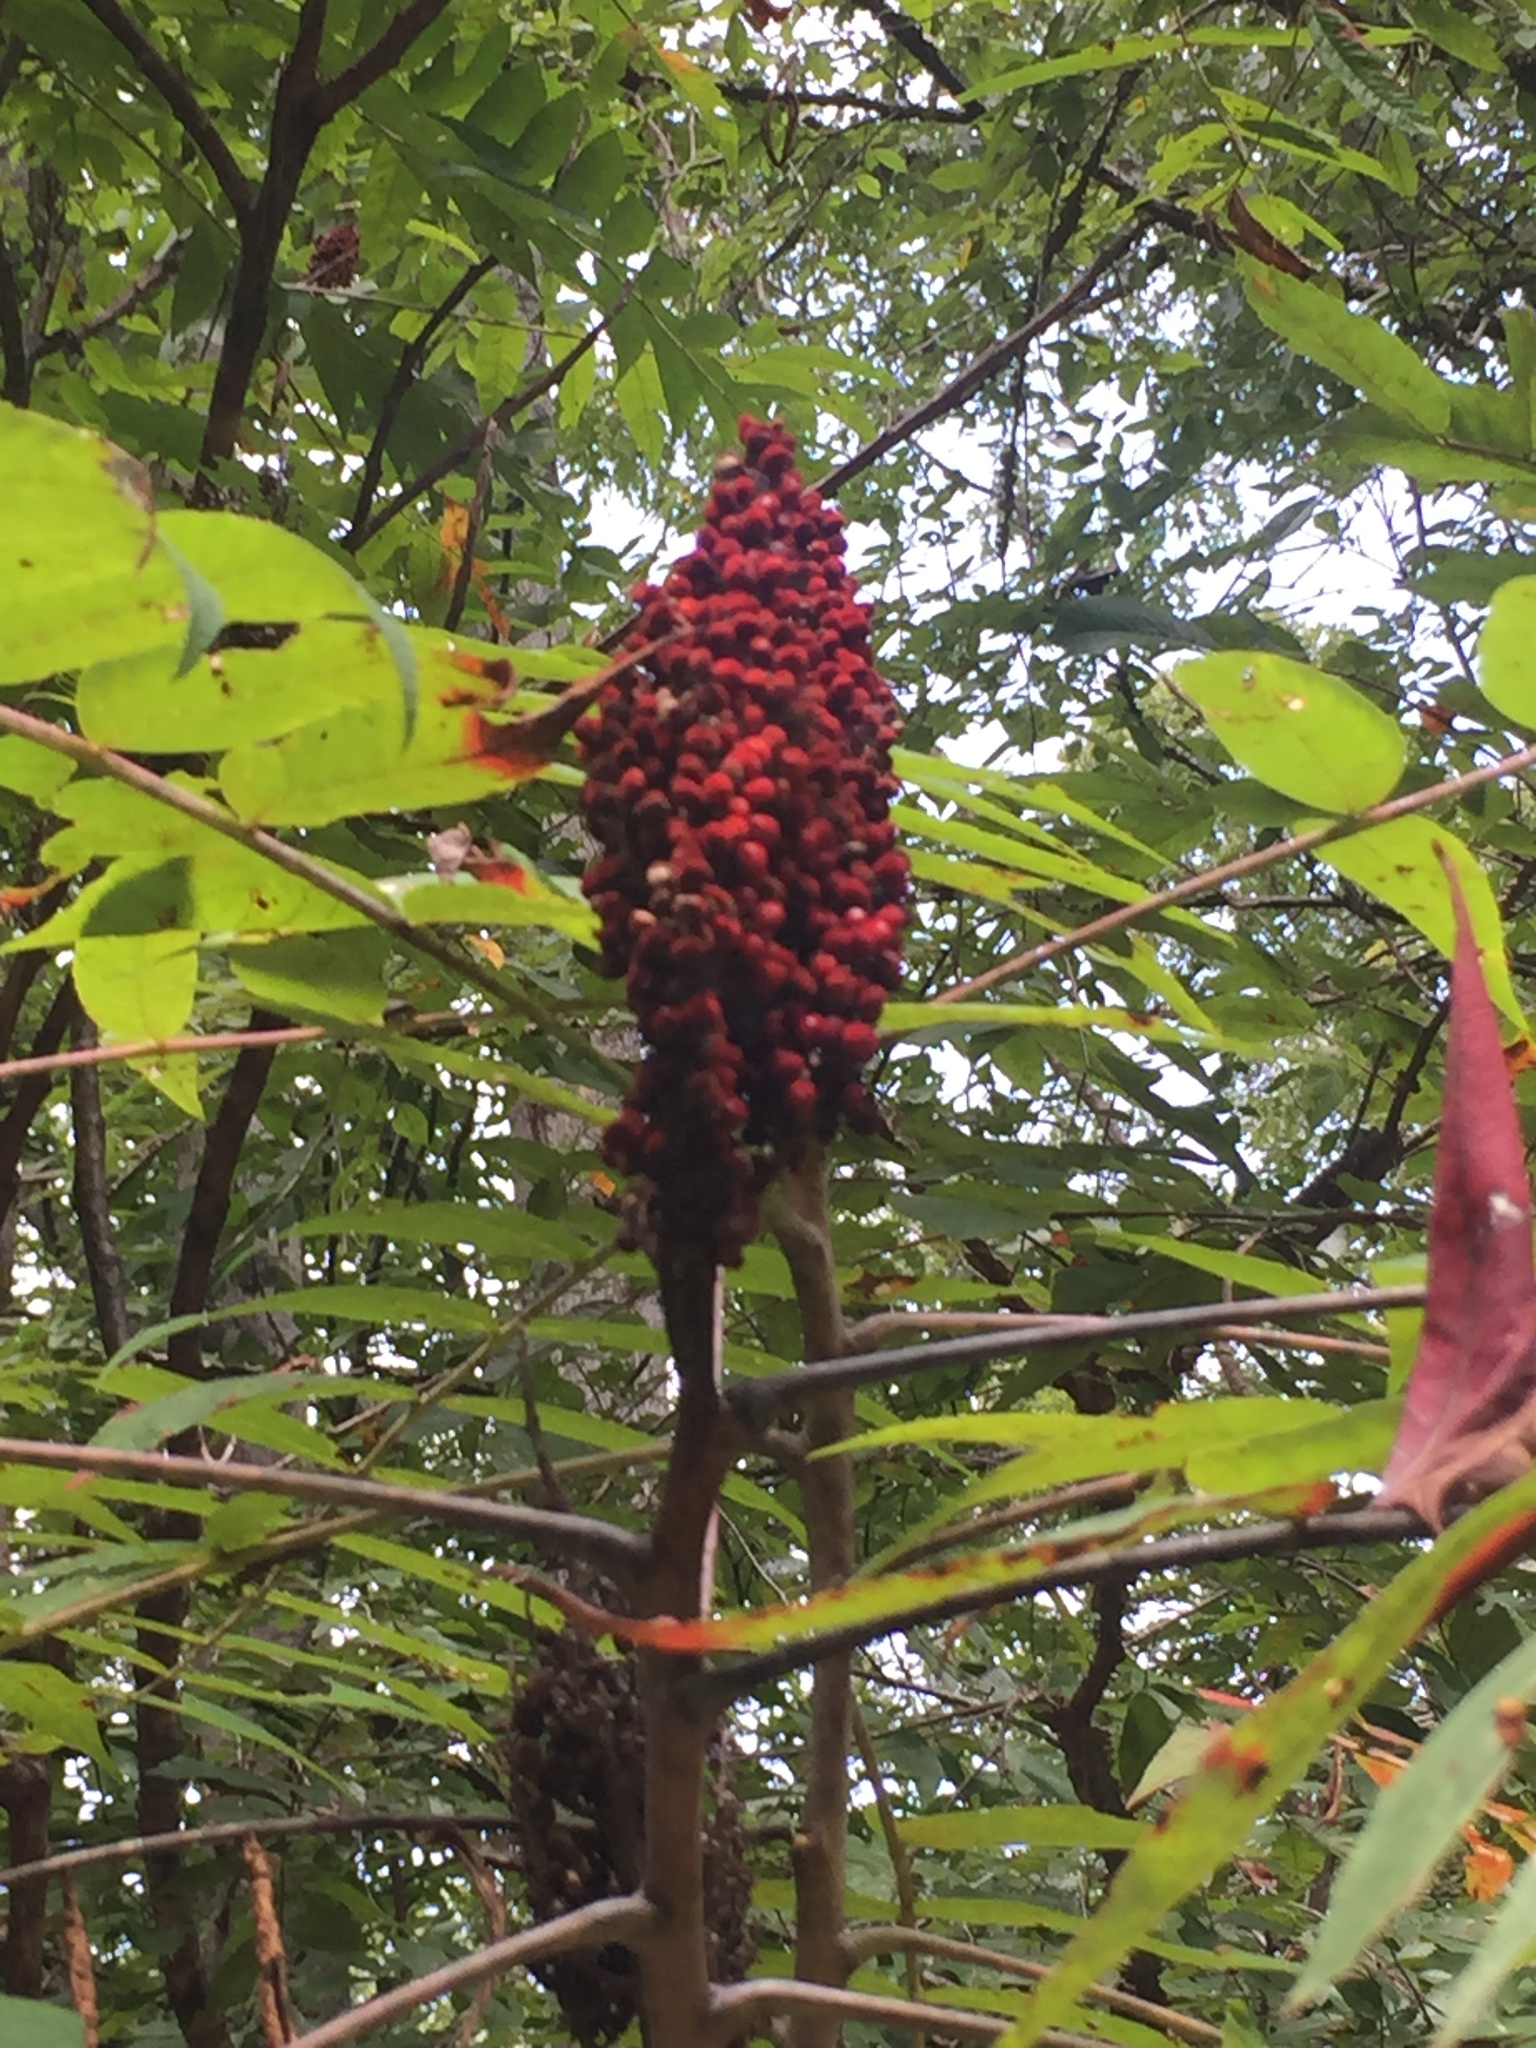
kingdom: Plantae
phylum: Tracheophyta
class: Magnoliopsida
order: Sapindales
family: Anacardiaceae
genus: Rhus
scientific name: Rhus glabra
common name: Scarlet sumac
